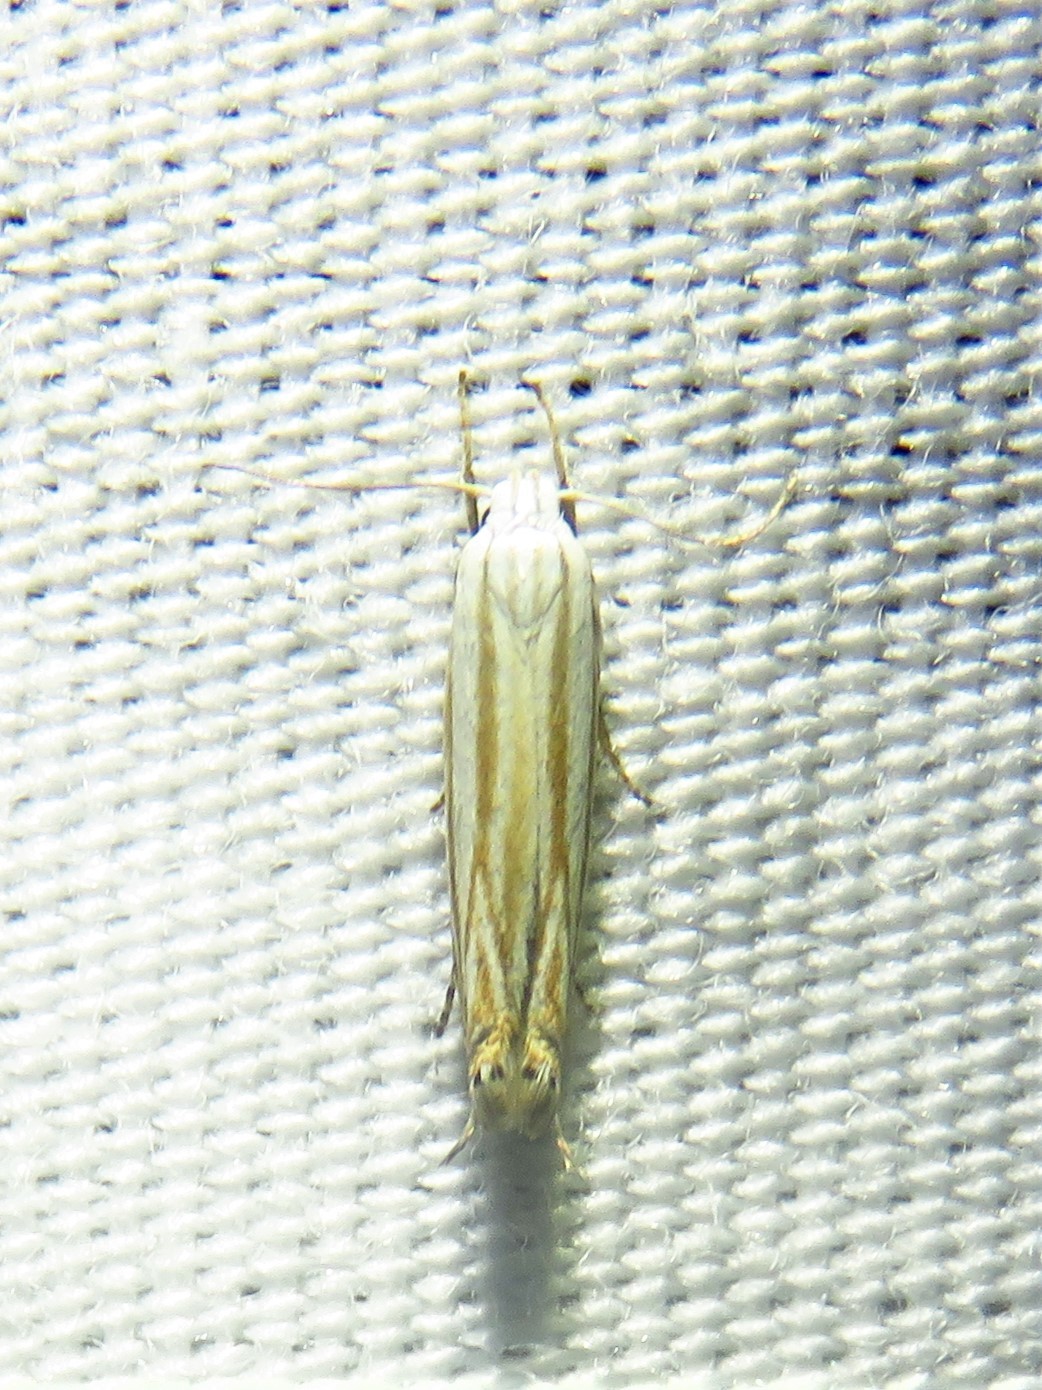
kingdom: Animalia
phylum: Arthropoda
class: Insecta
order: Lepidoptera
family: Gelechiidae
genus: Polyhymno
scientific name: Polyhymno luteostrigella
